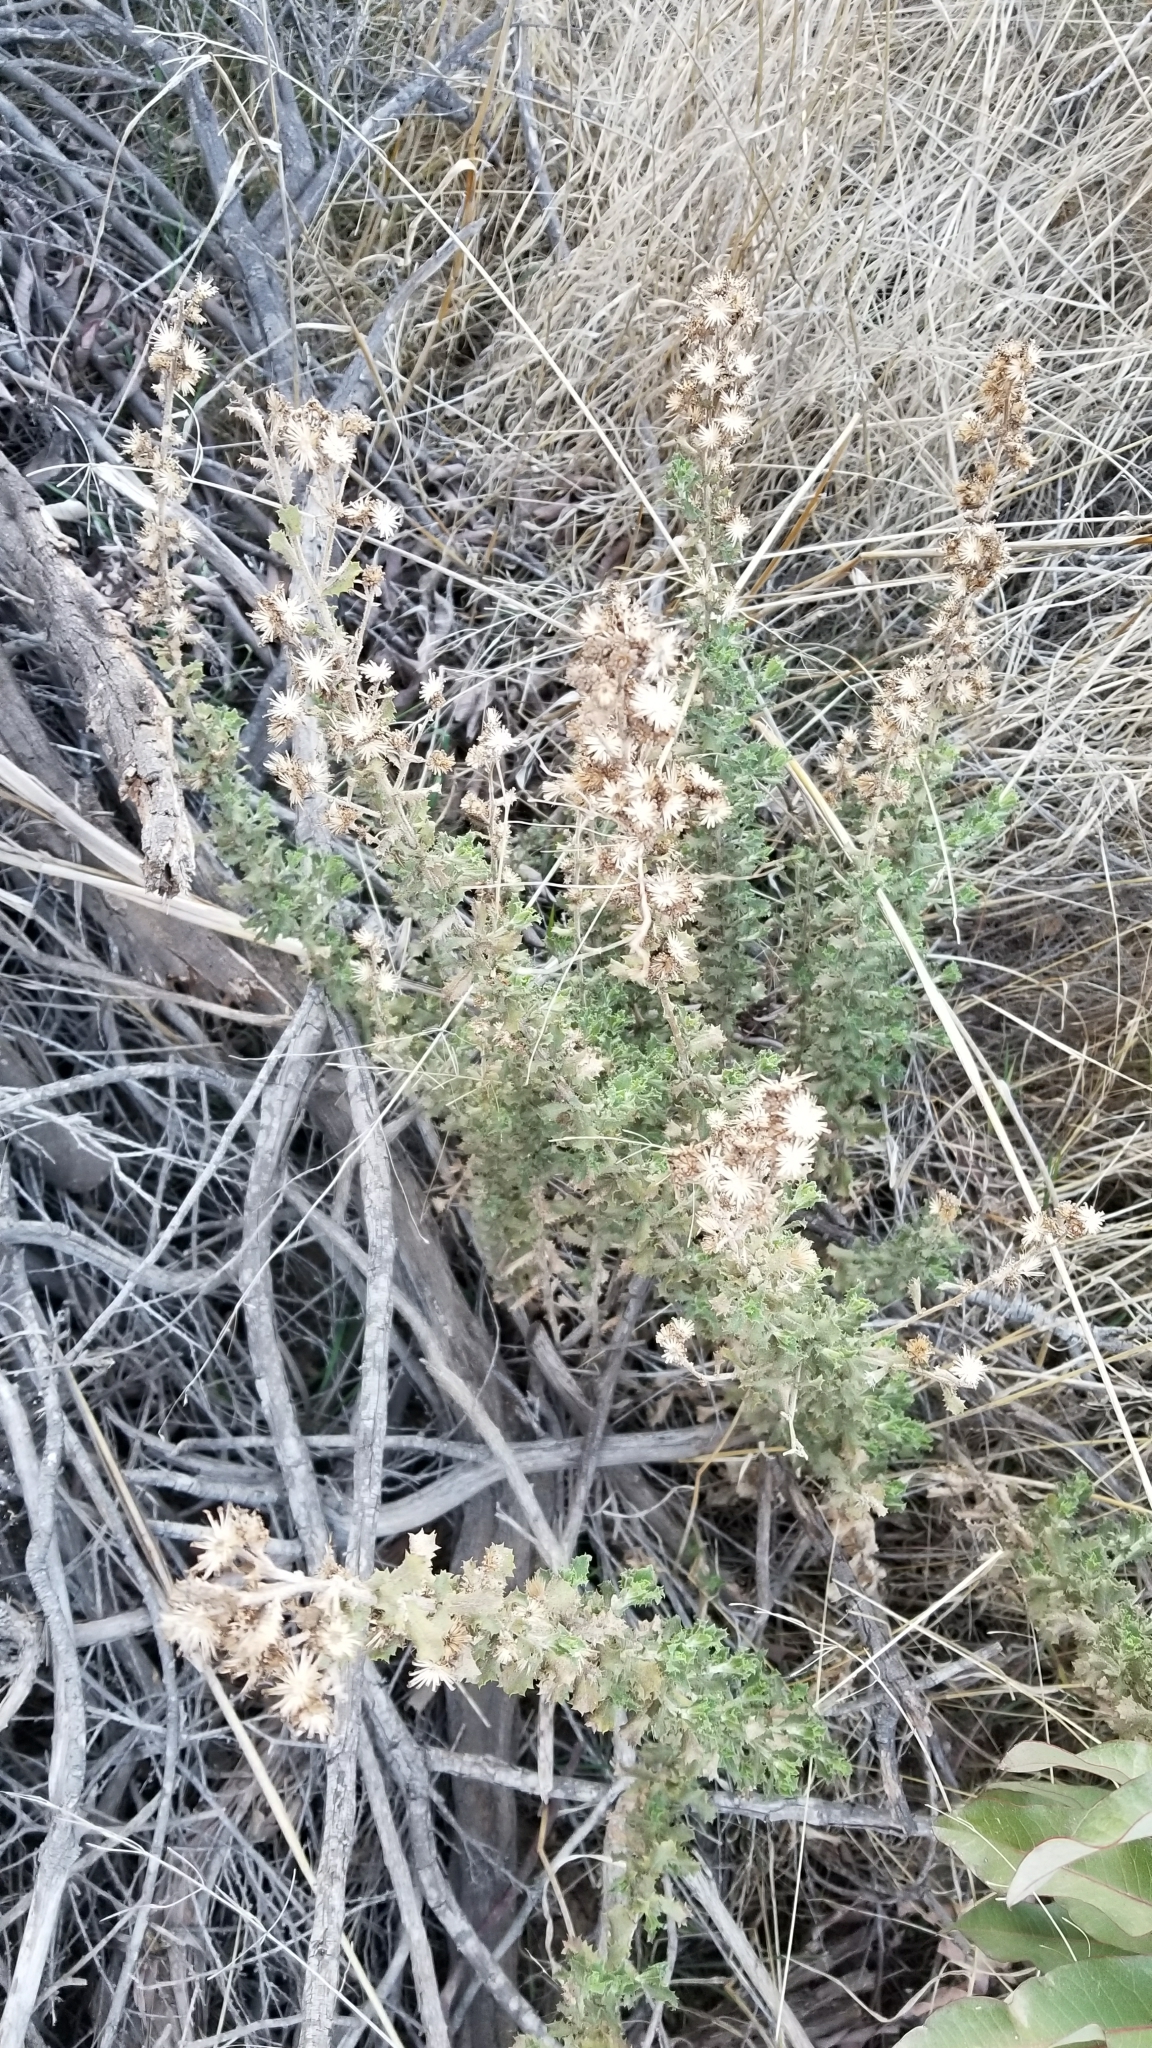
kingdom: Plantae
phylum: Tracheophyta
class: Magnoliopsida
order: Asterales
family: Asteraceae
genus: Isocoma
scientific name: Isocoma menziesii
